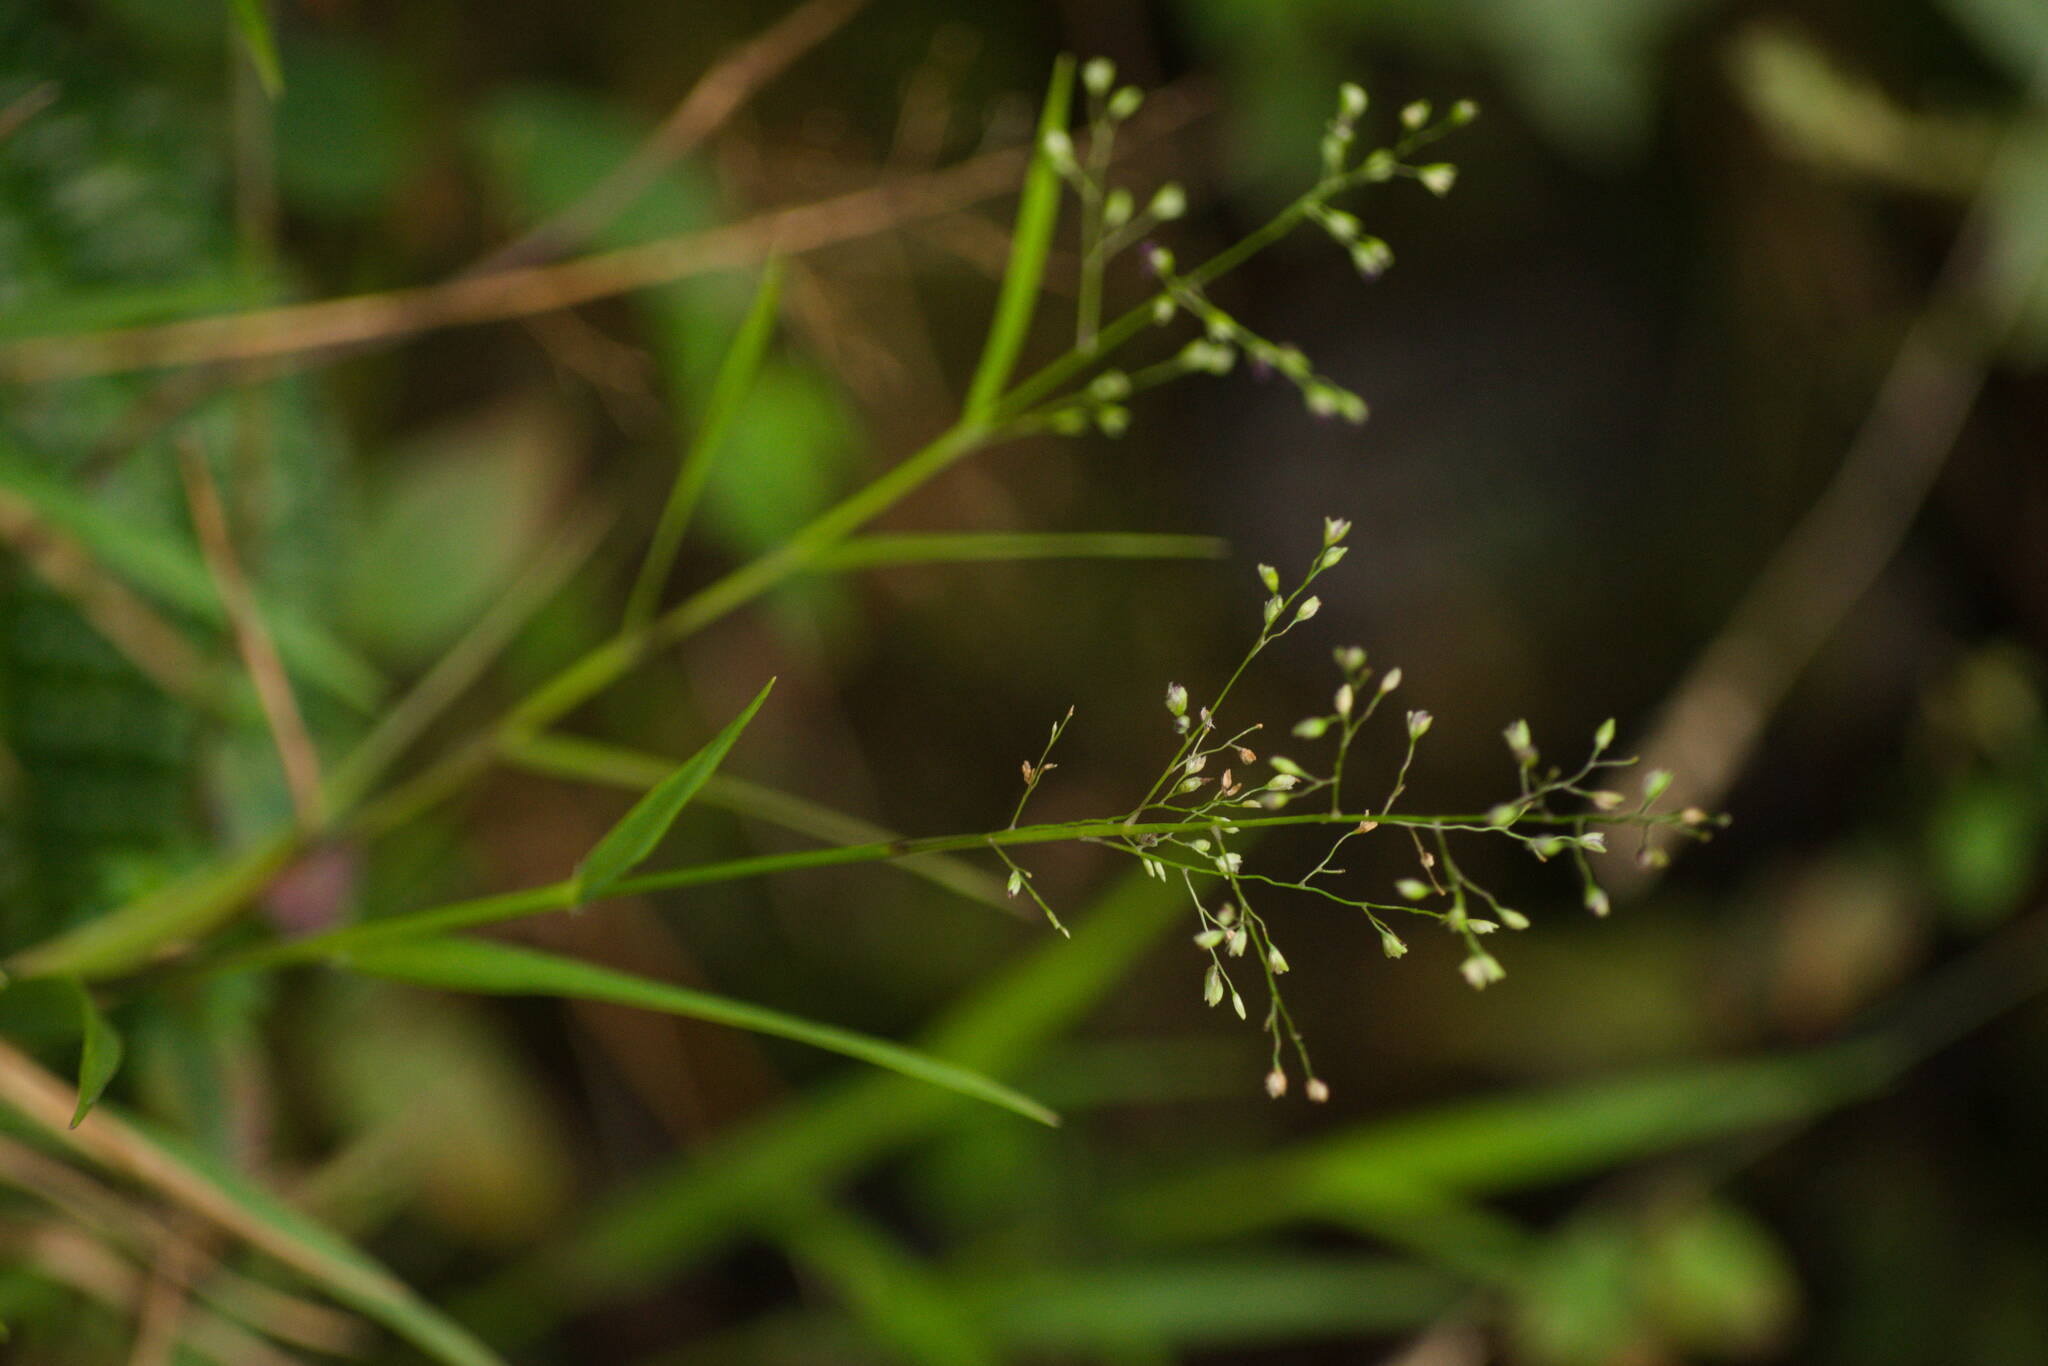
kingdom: Plantae
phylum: Tracheophyta
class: Liliopsida
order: Poales
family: Poaceae
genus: Isachne
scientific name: Isachne pallens
